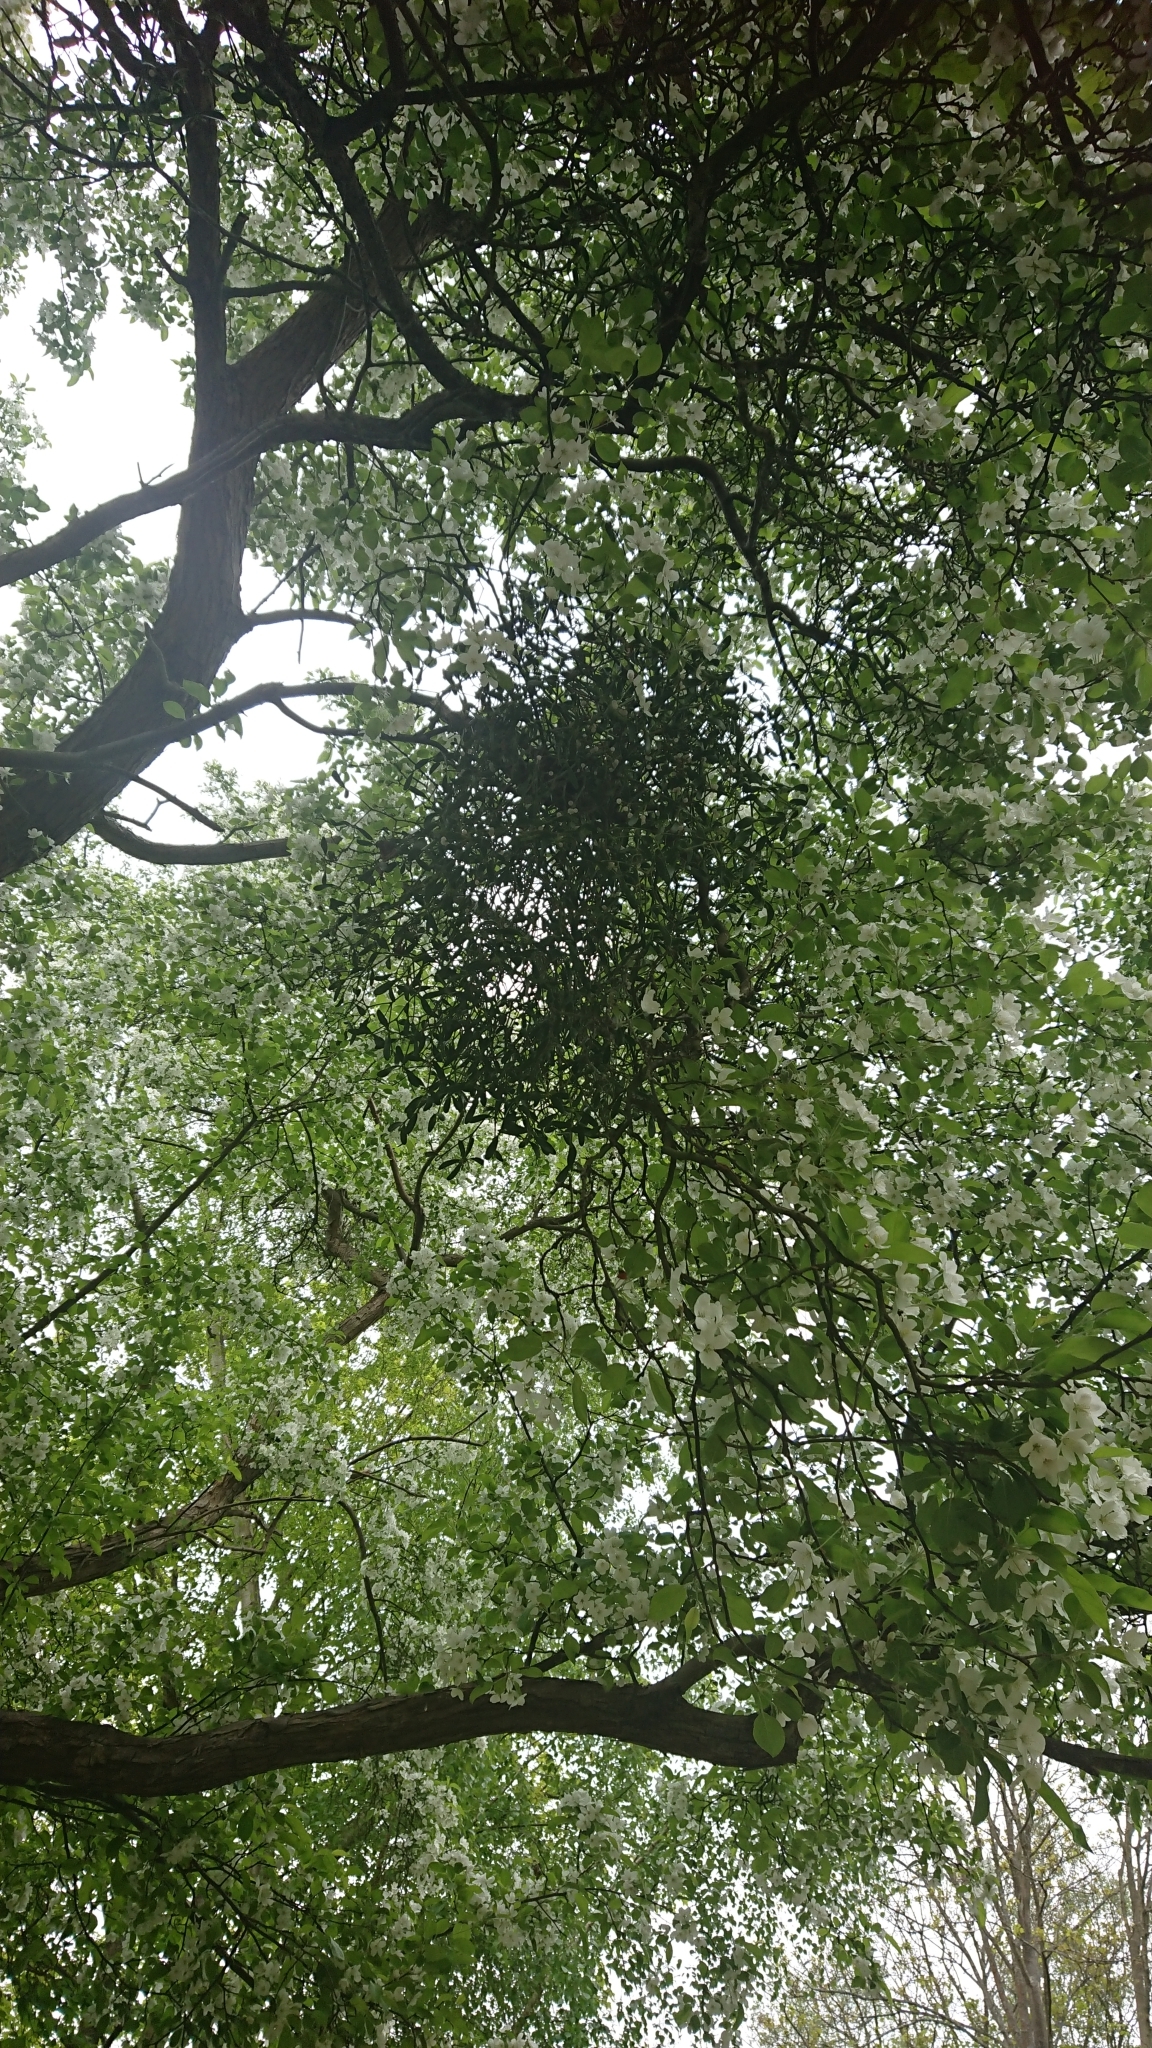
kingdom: Plantae
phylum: Tracheophyta
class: Magnoliopsida
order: Santalales
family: Viscaceae
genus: Viscum
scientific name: Viscum album
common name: Mistletoe
